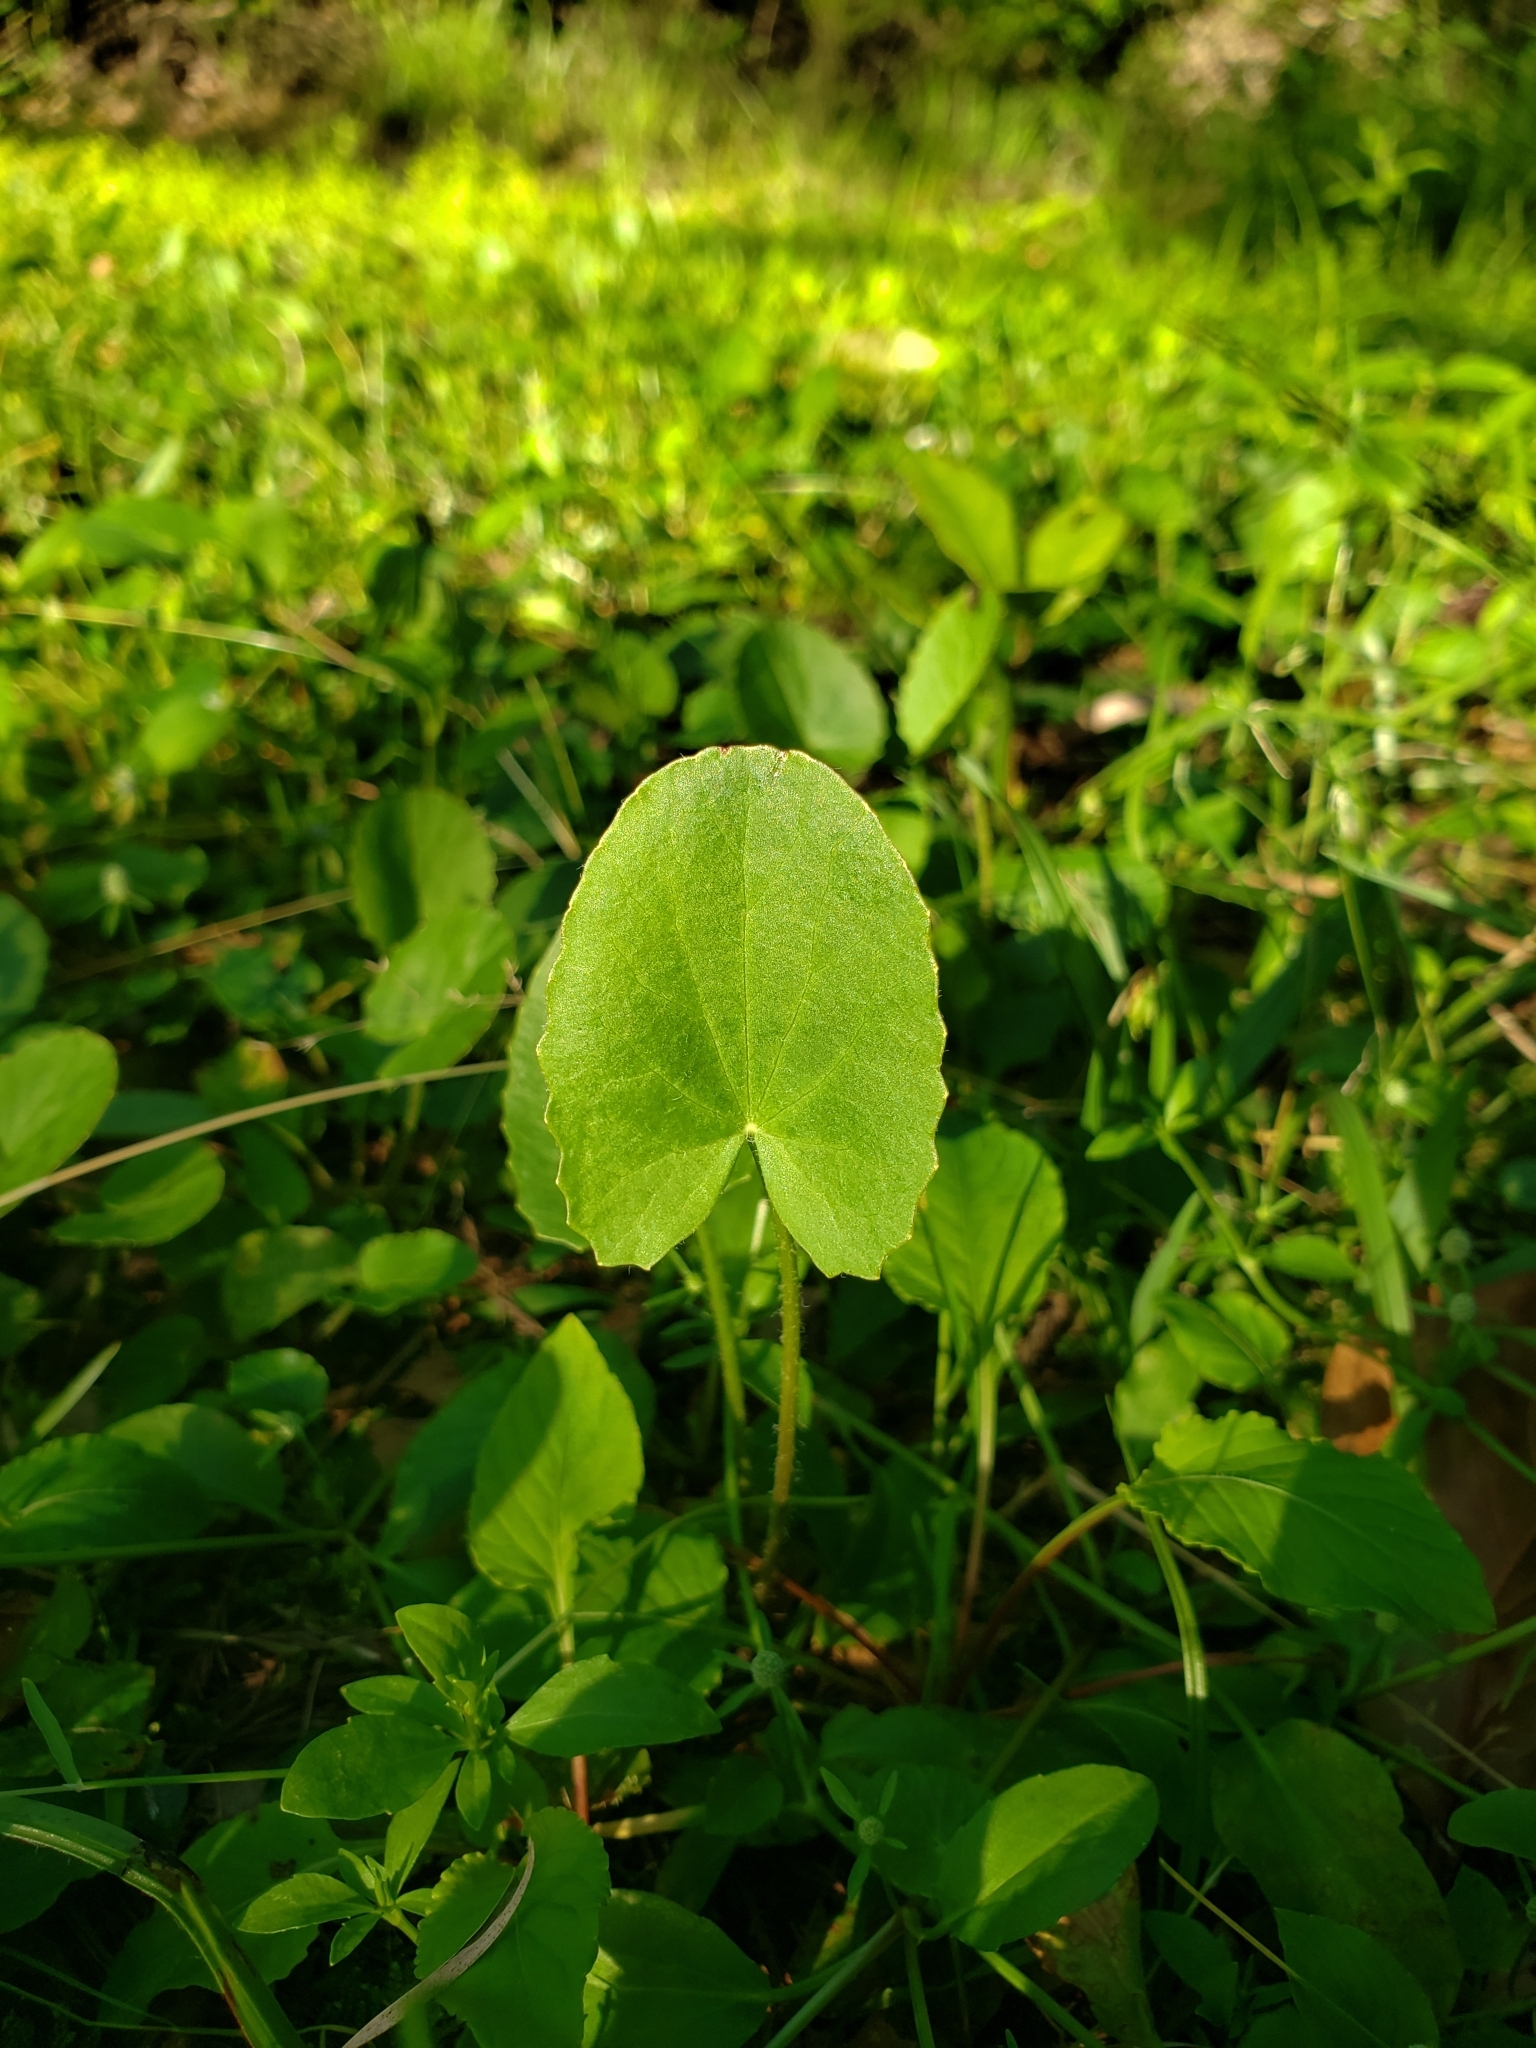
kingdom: Plantae
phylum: Tracheophyta
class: Magnoliopsida
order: Apiales
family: Apiaceae
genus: Centella
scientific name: Centella erecta
